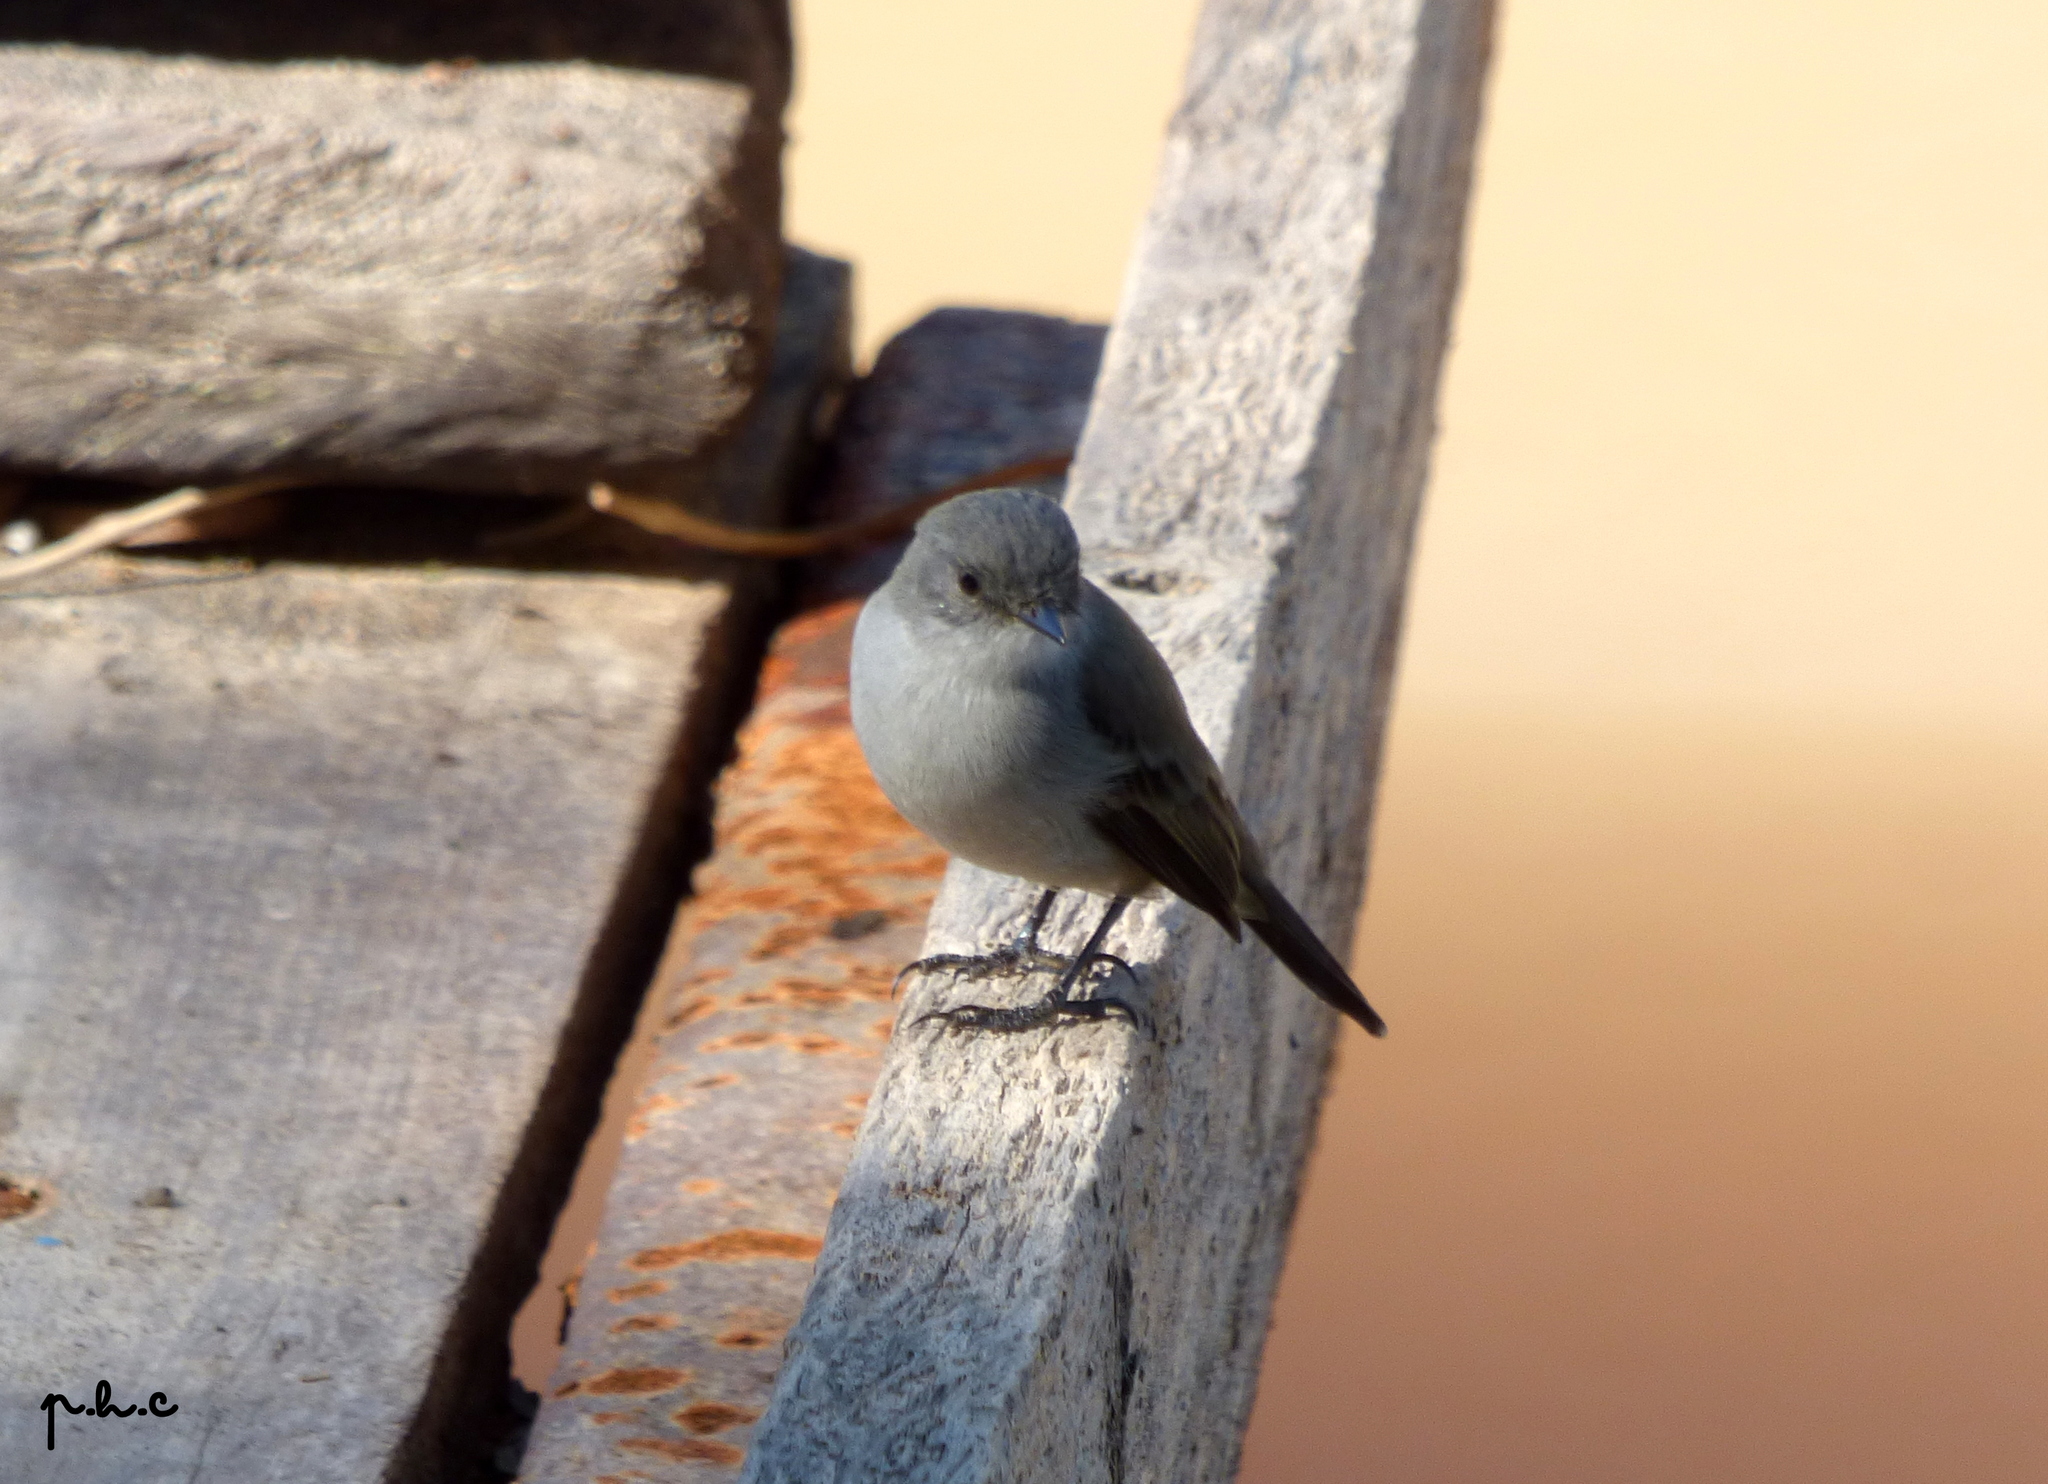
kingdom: Animalia
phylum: Chordata
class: Aves
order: Passeriformes
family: Tyrannidae
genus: Serpophaga
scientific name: Serpophaga nigricans
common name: Sooty tyrannulet
